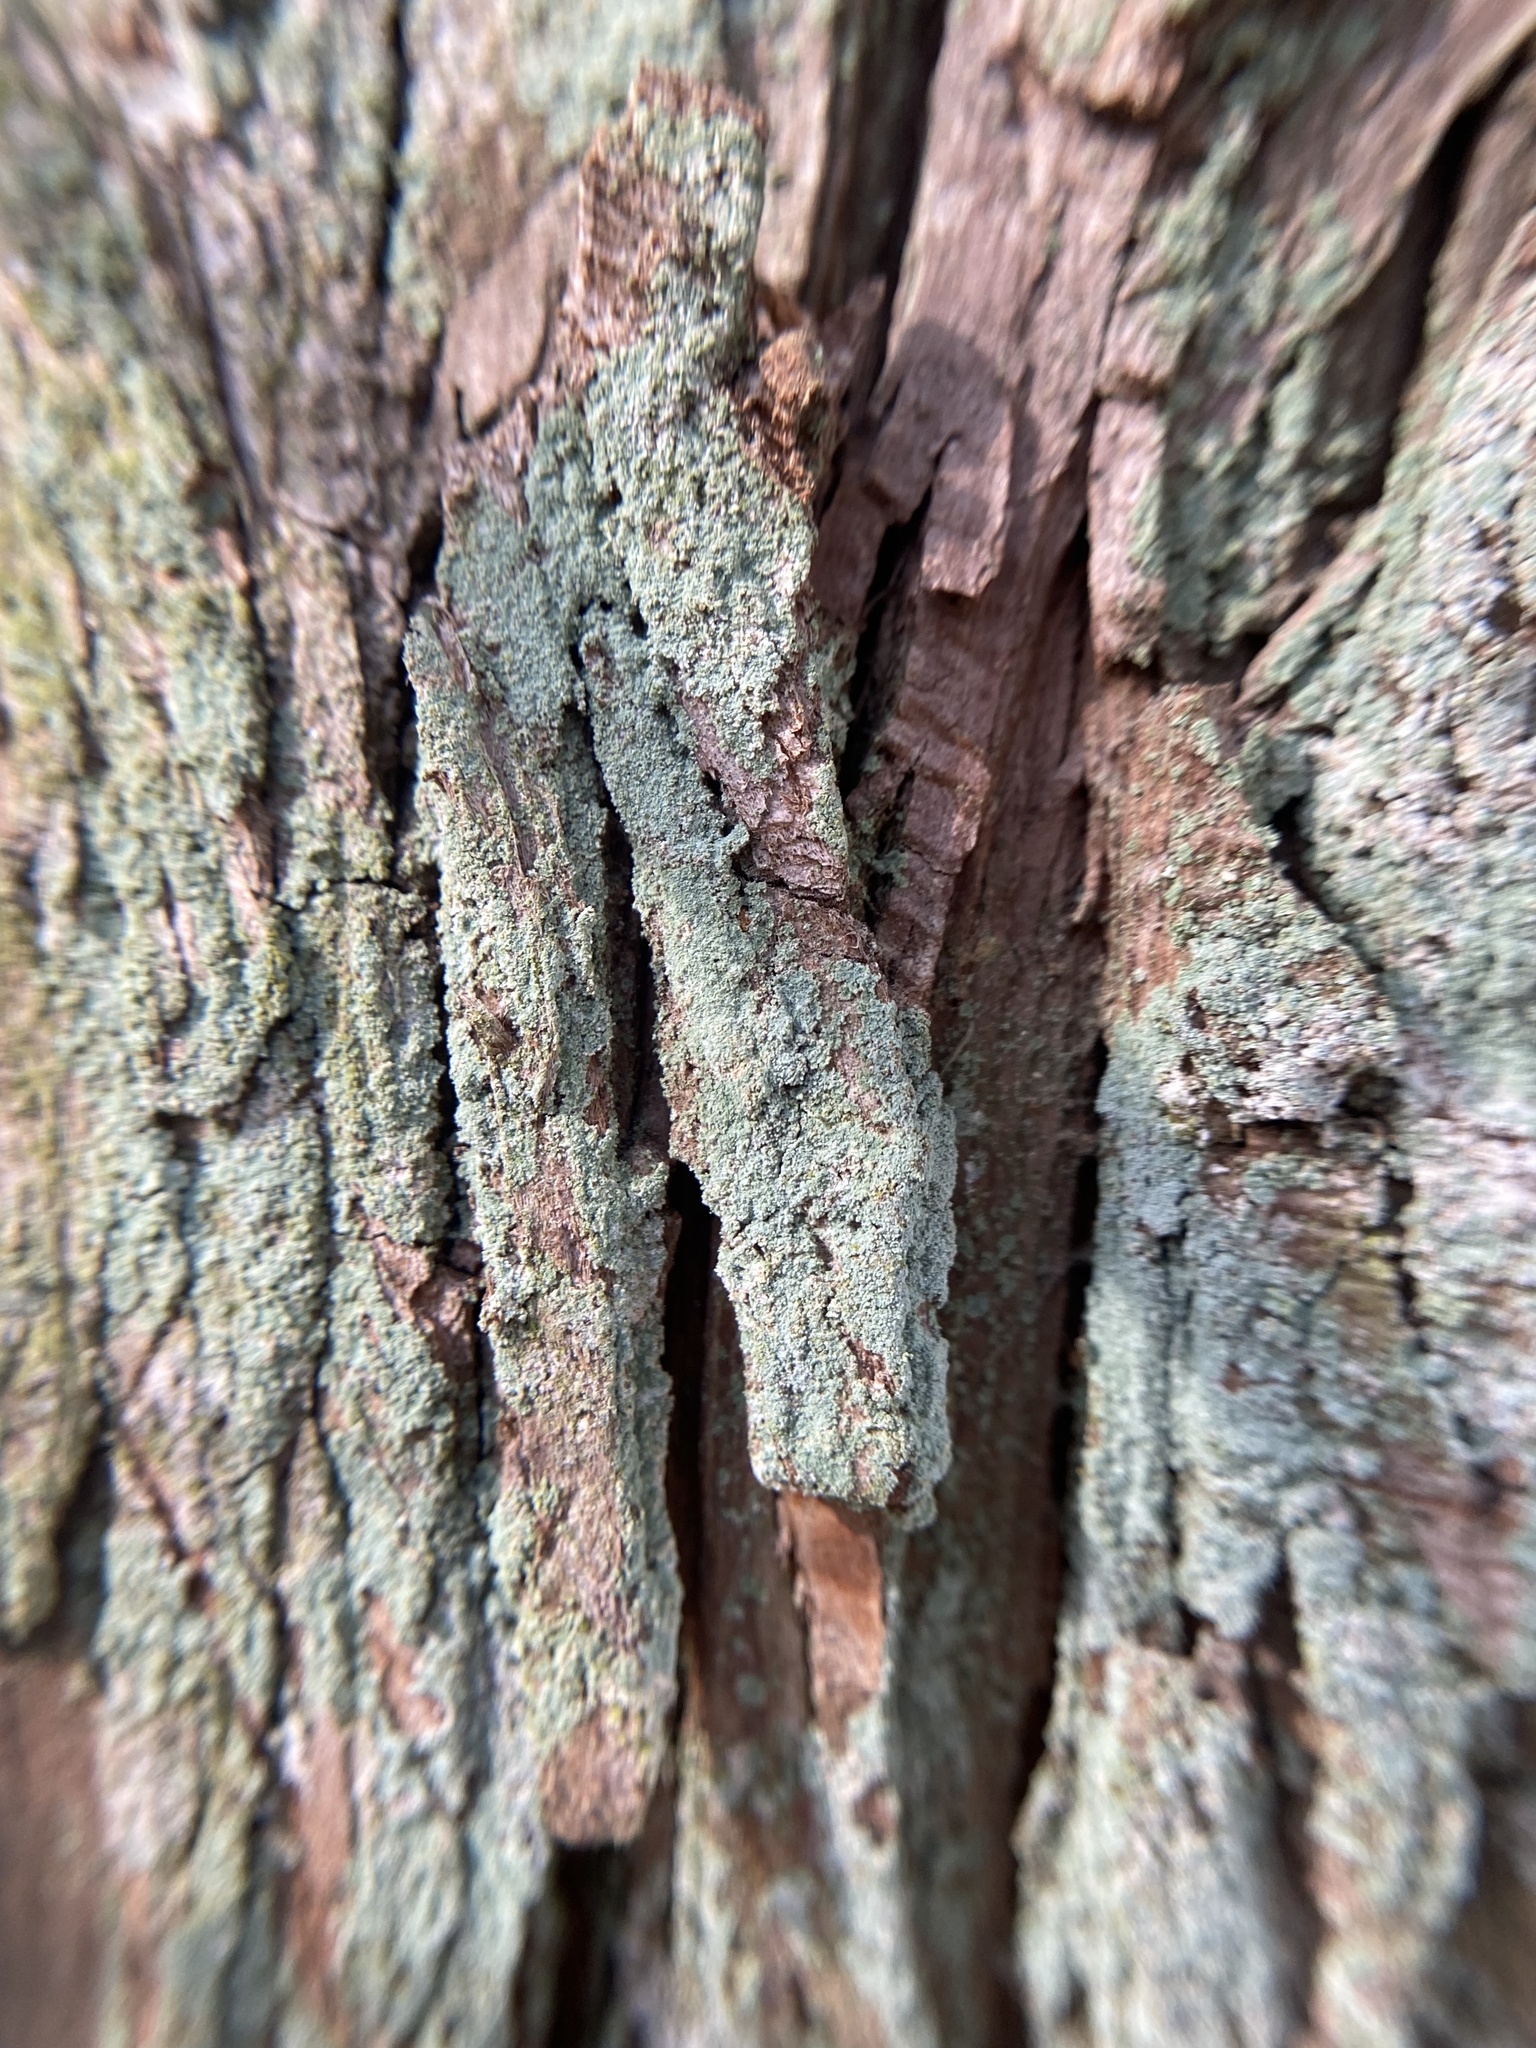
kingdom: Fungi
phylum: Ascomycota
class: Lecanoromycetes
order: Lecanorales
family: Cladoniaceae
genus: Cladonia
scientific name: Cladonia santensis
